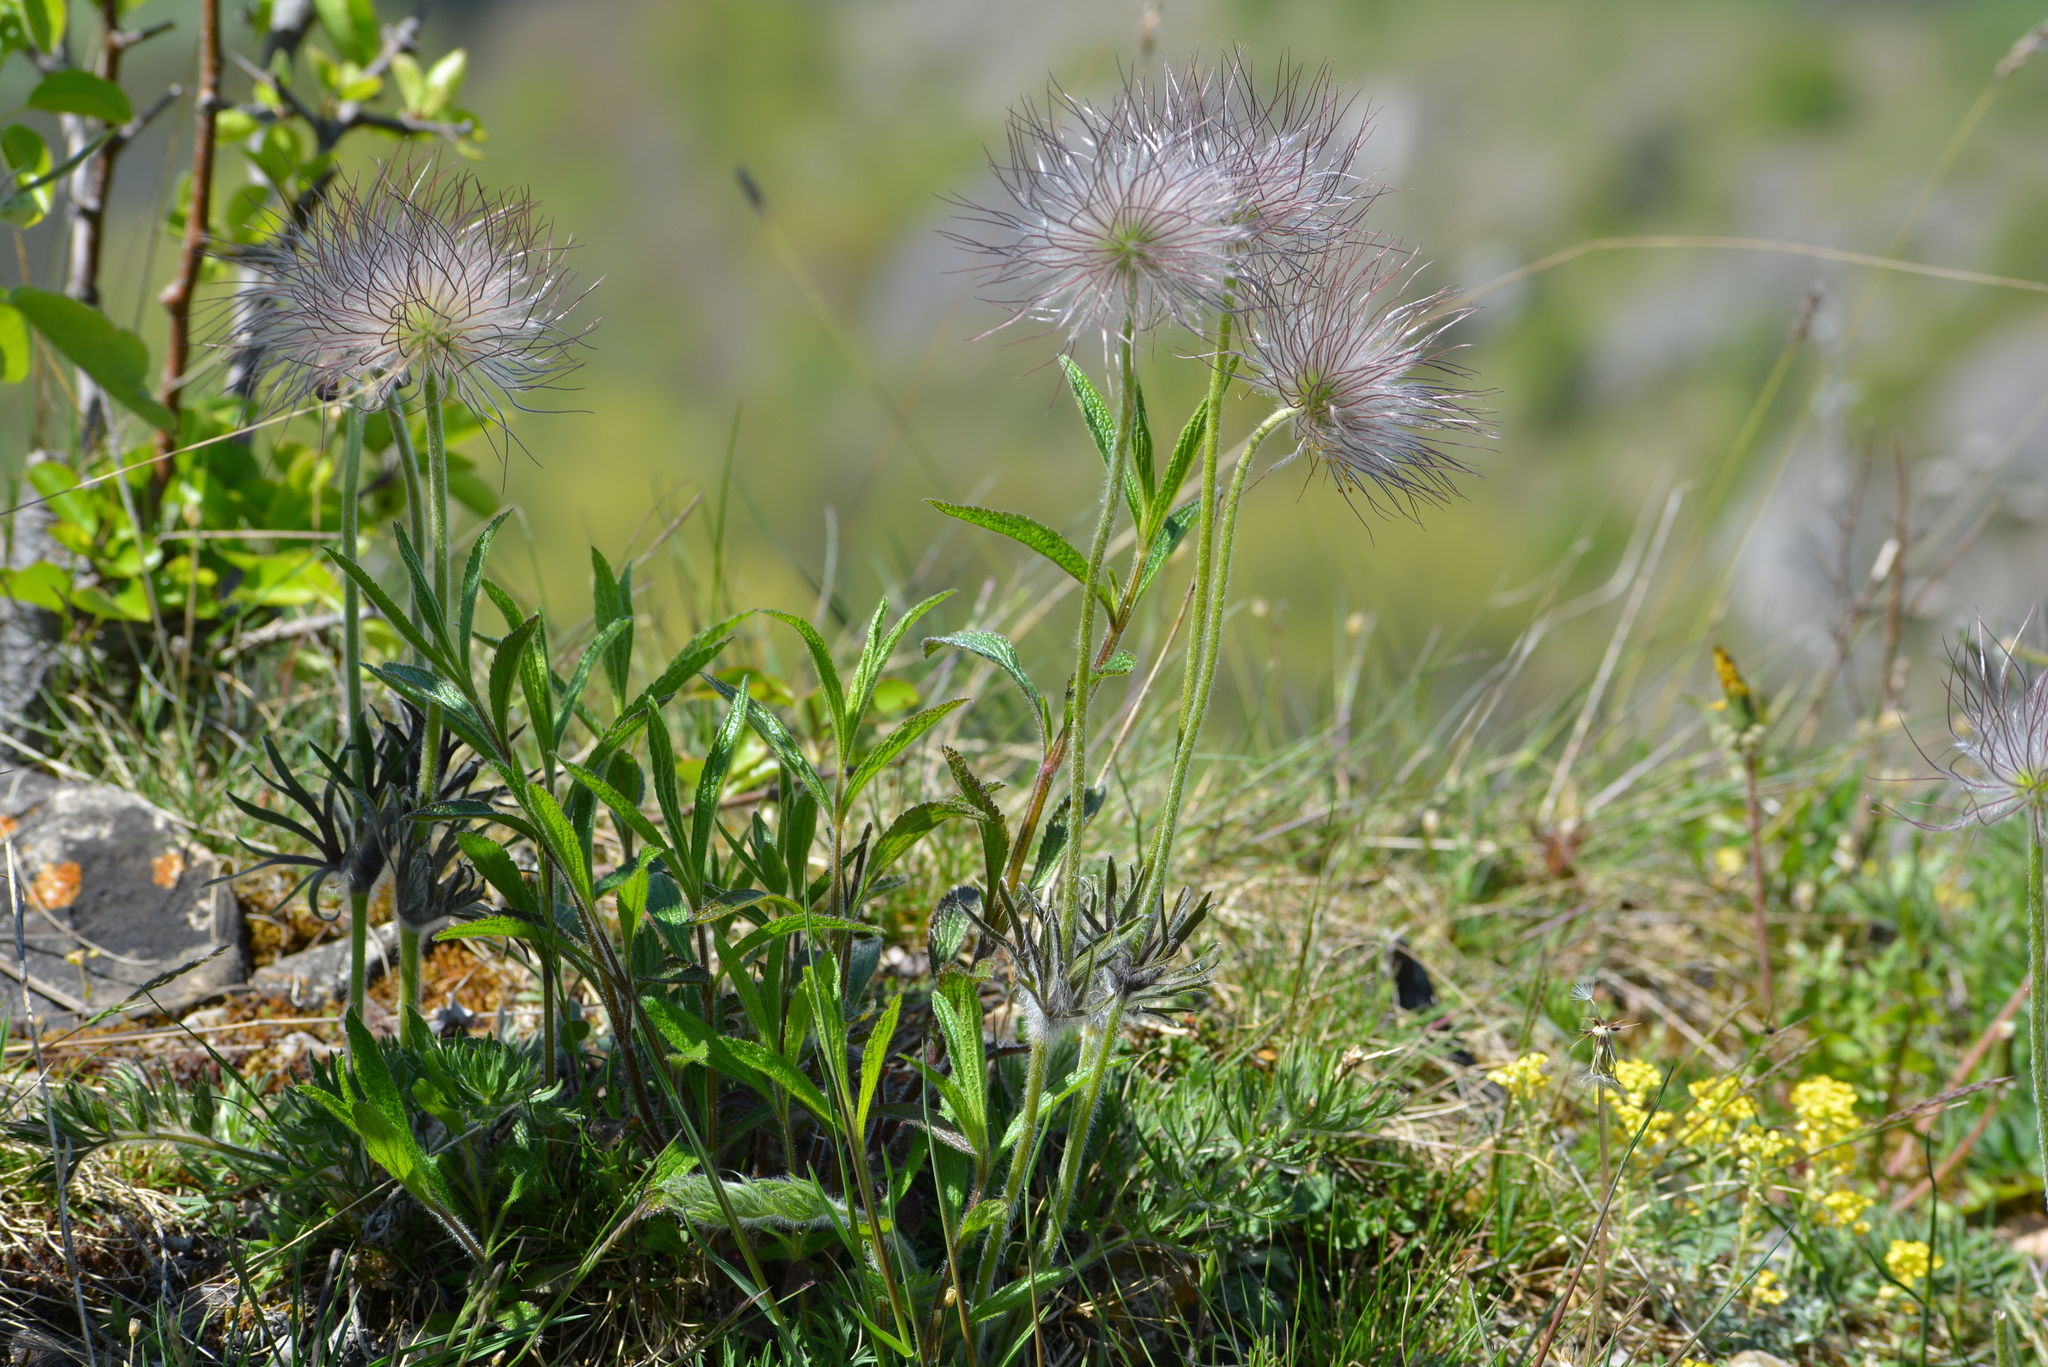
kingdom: Plantae
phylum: Tracheophyta
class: Magnoliopsida
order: Ranunculales
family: Ranunculaceae
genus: Pulsatilla
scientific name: Pulsatilla pratensis
